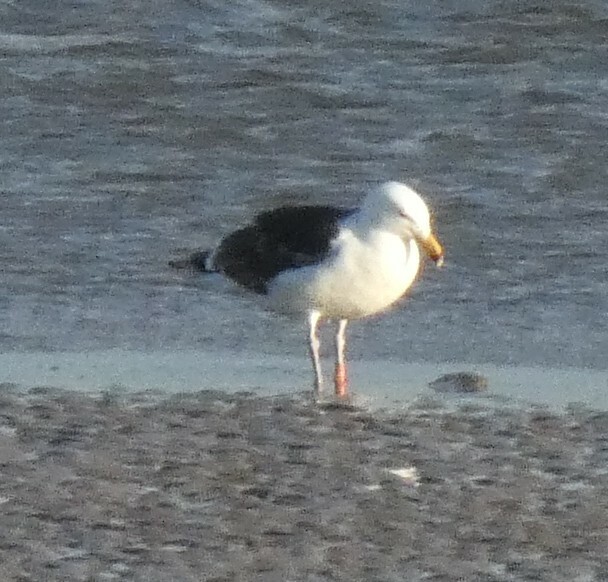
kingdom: Animalia
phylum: Chordata
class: Aves
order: Charadriiformes
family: Laridae
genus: Larus
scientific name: Larus marinus
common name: Great black-backed gull
